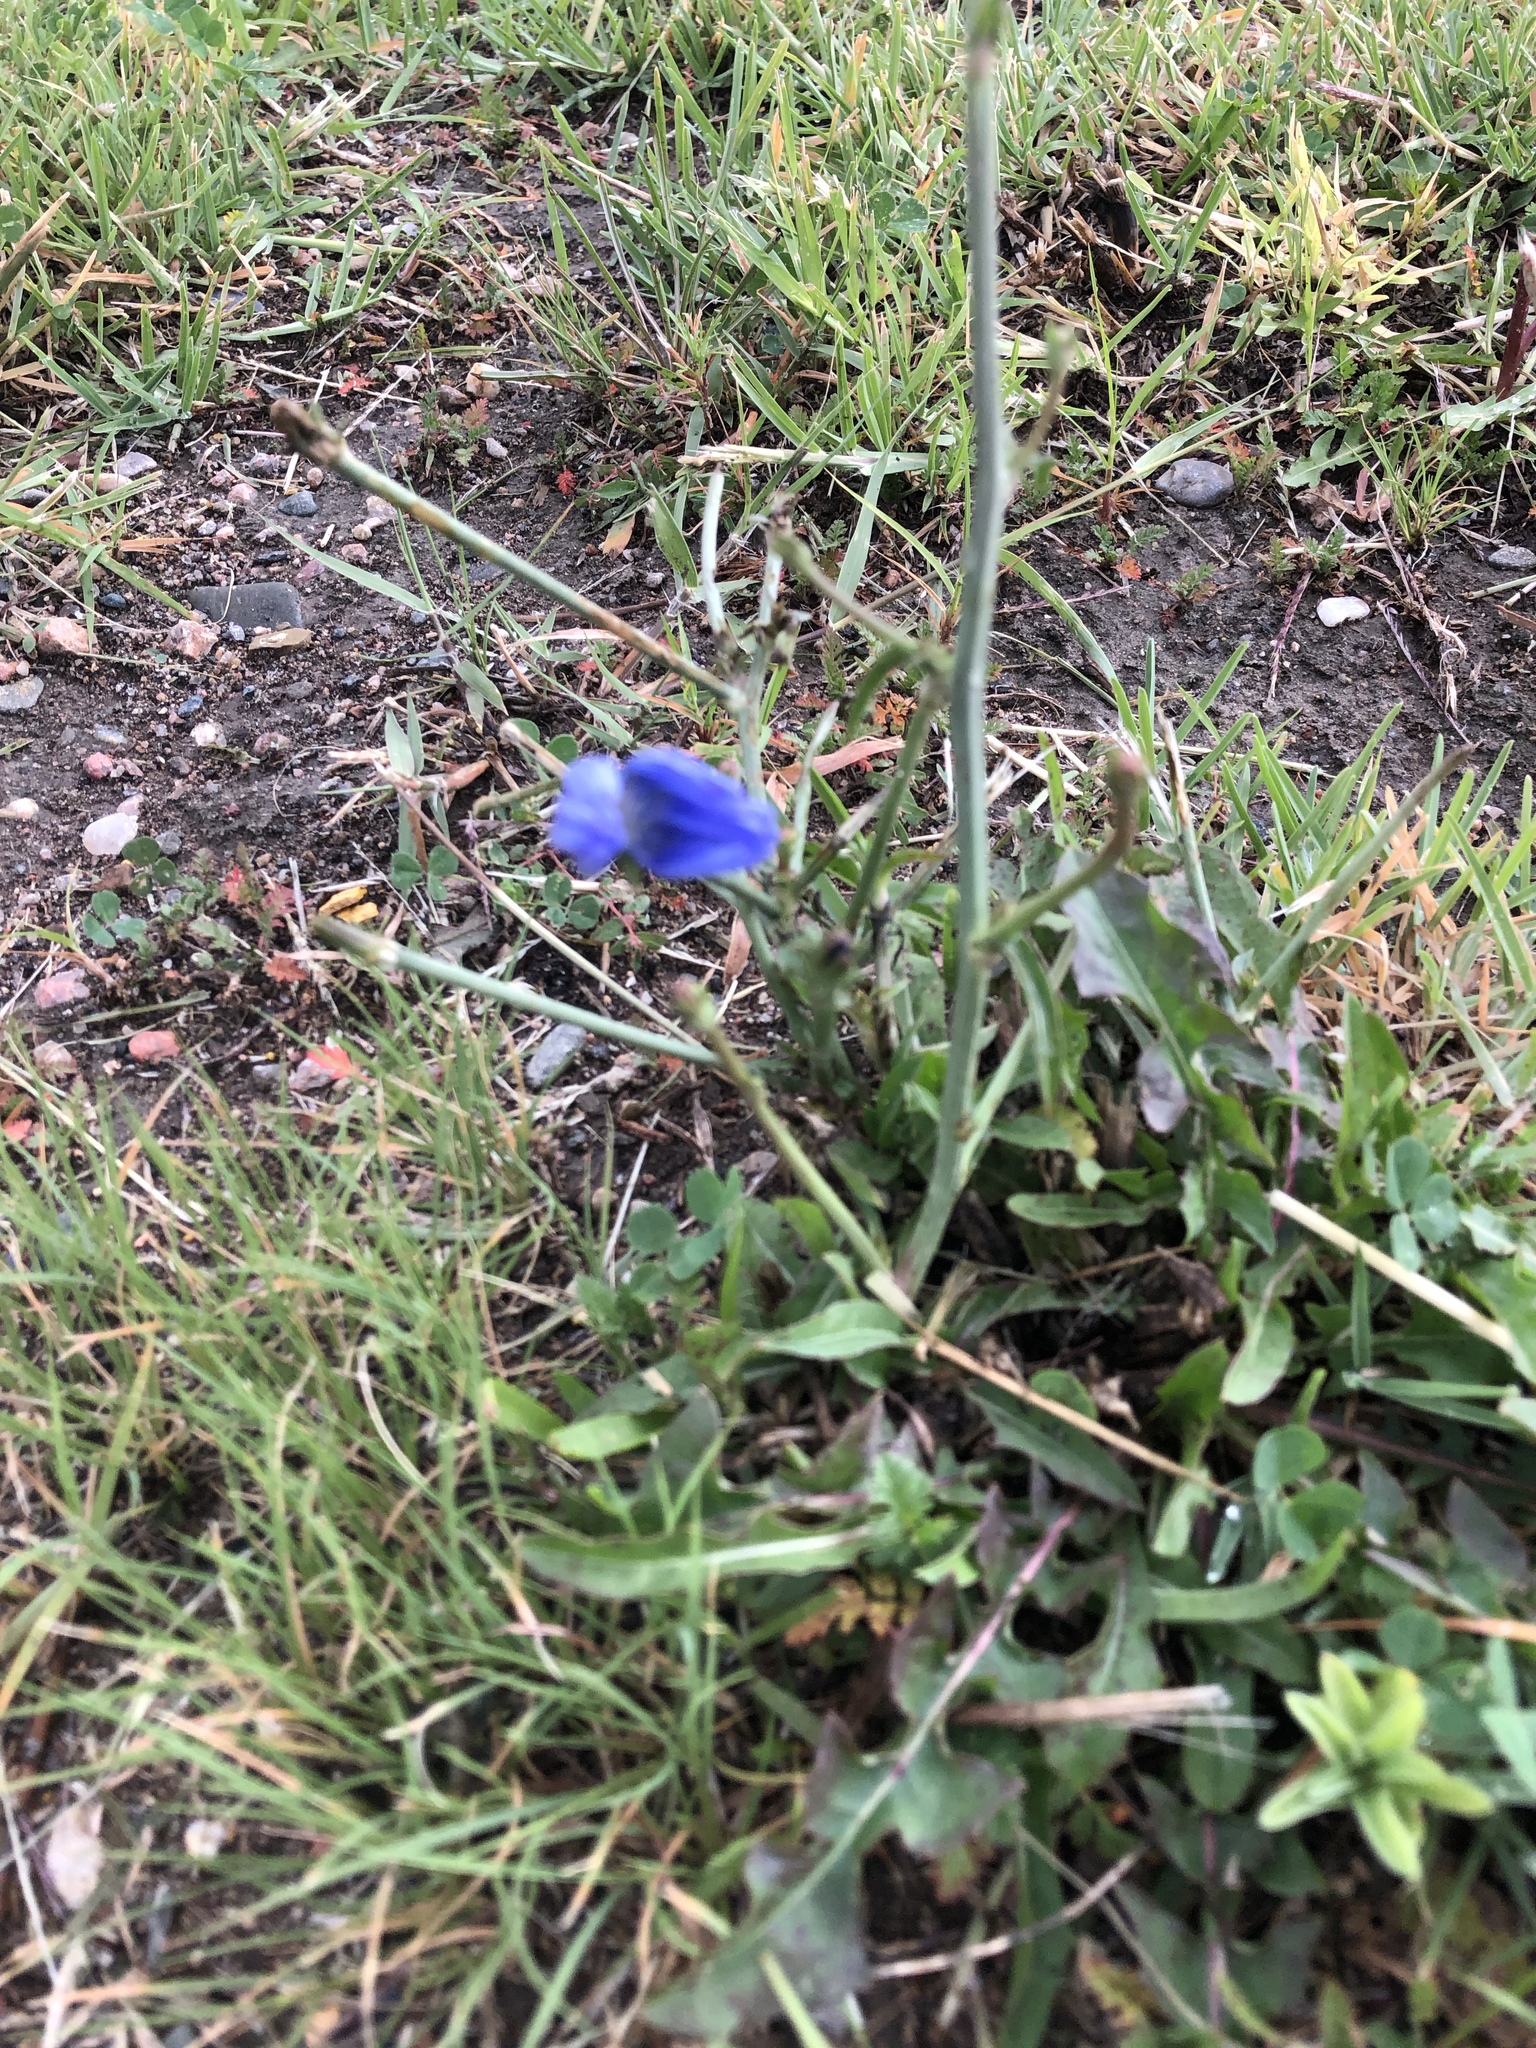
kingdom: Plantae
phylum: Tracheophyta
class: Magnoliopsida
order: Asterales
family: Asteraceae
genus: Cichorium
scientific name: Cichorium intybus
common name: Chicory
